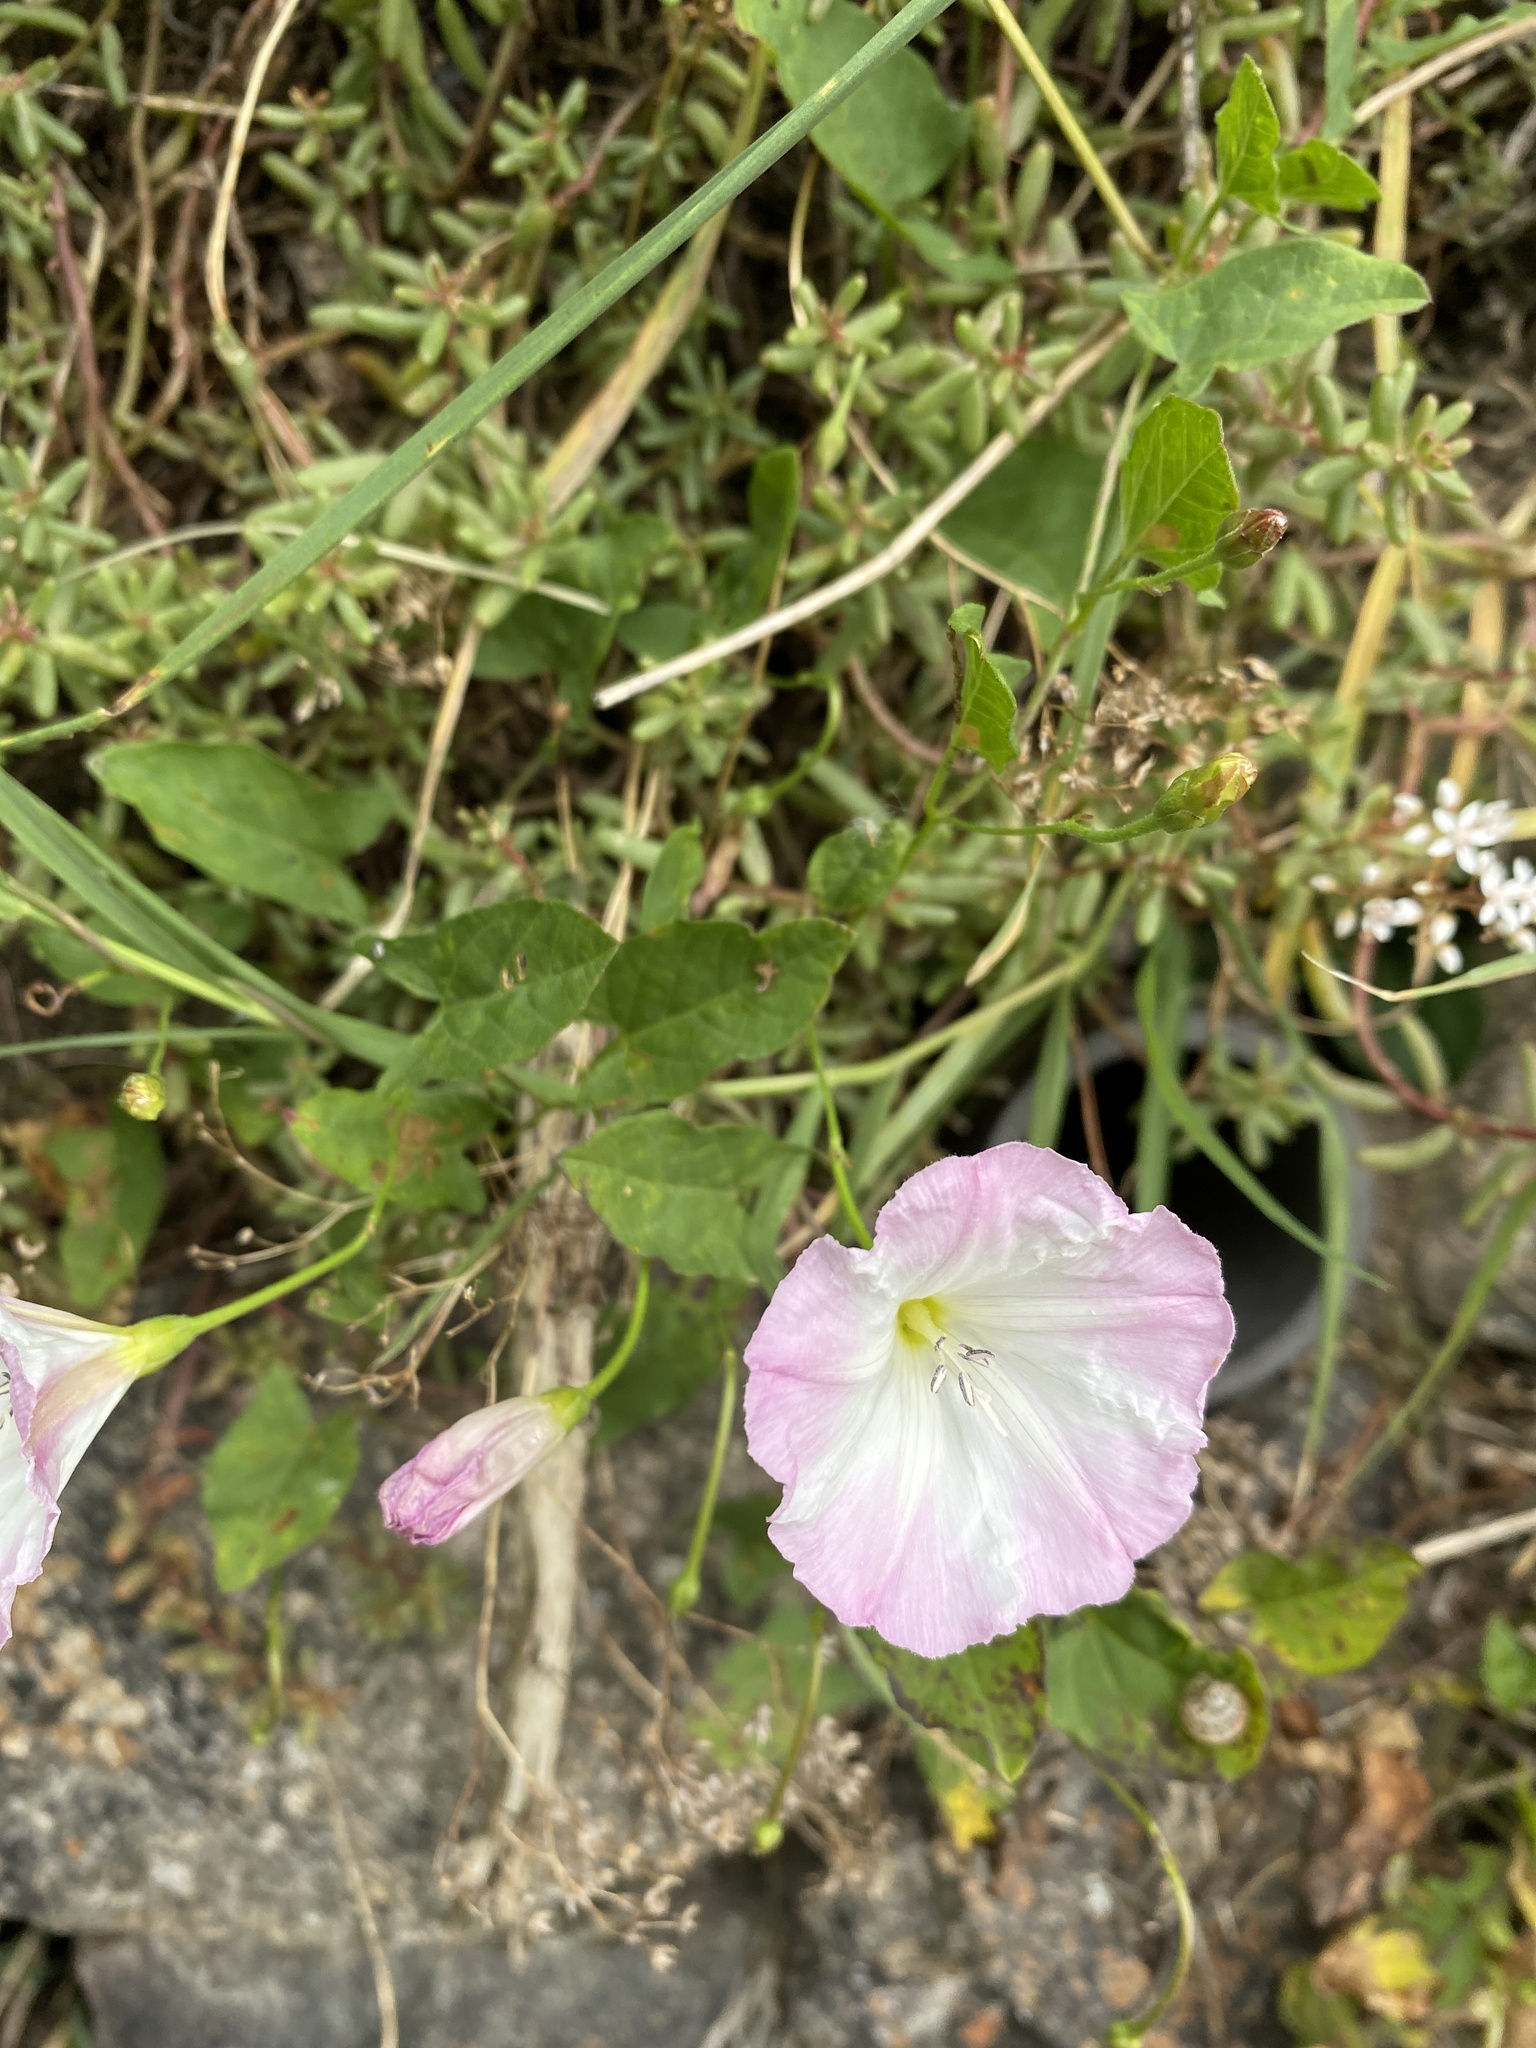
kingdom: Plantae
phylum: Tracheophyta
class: Magnoliopsida
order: Solanales
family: Convolvulaceae
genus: Convolvulus
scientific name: Convolvulus arvensis
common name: Field bindweed
